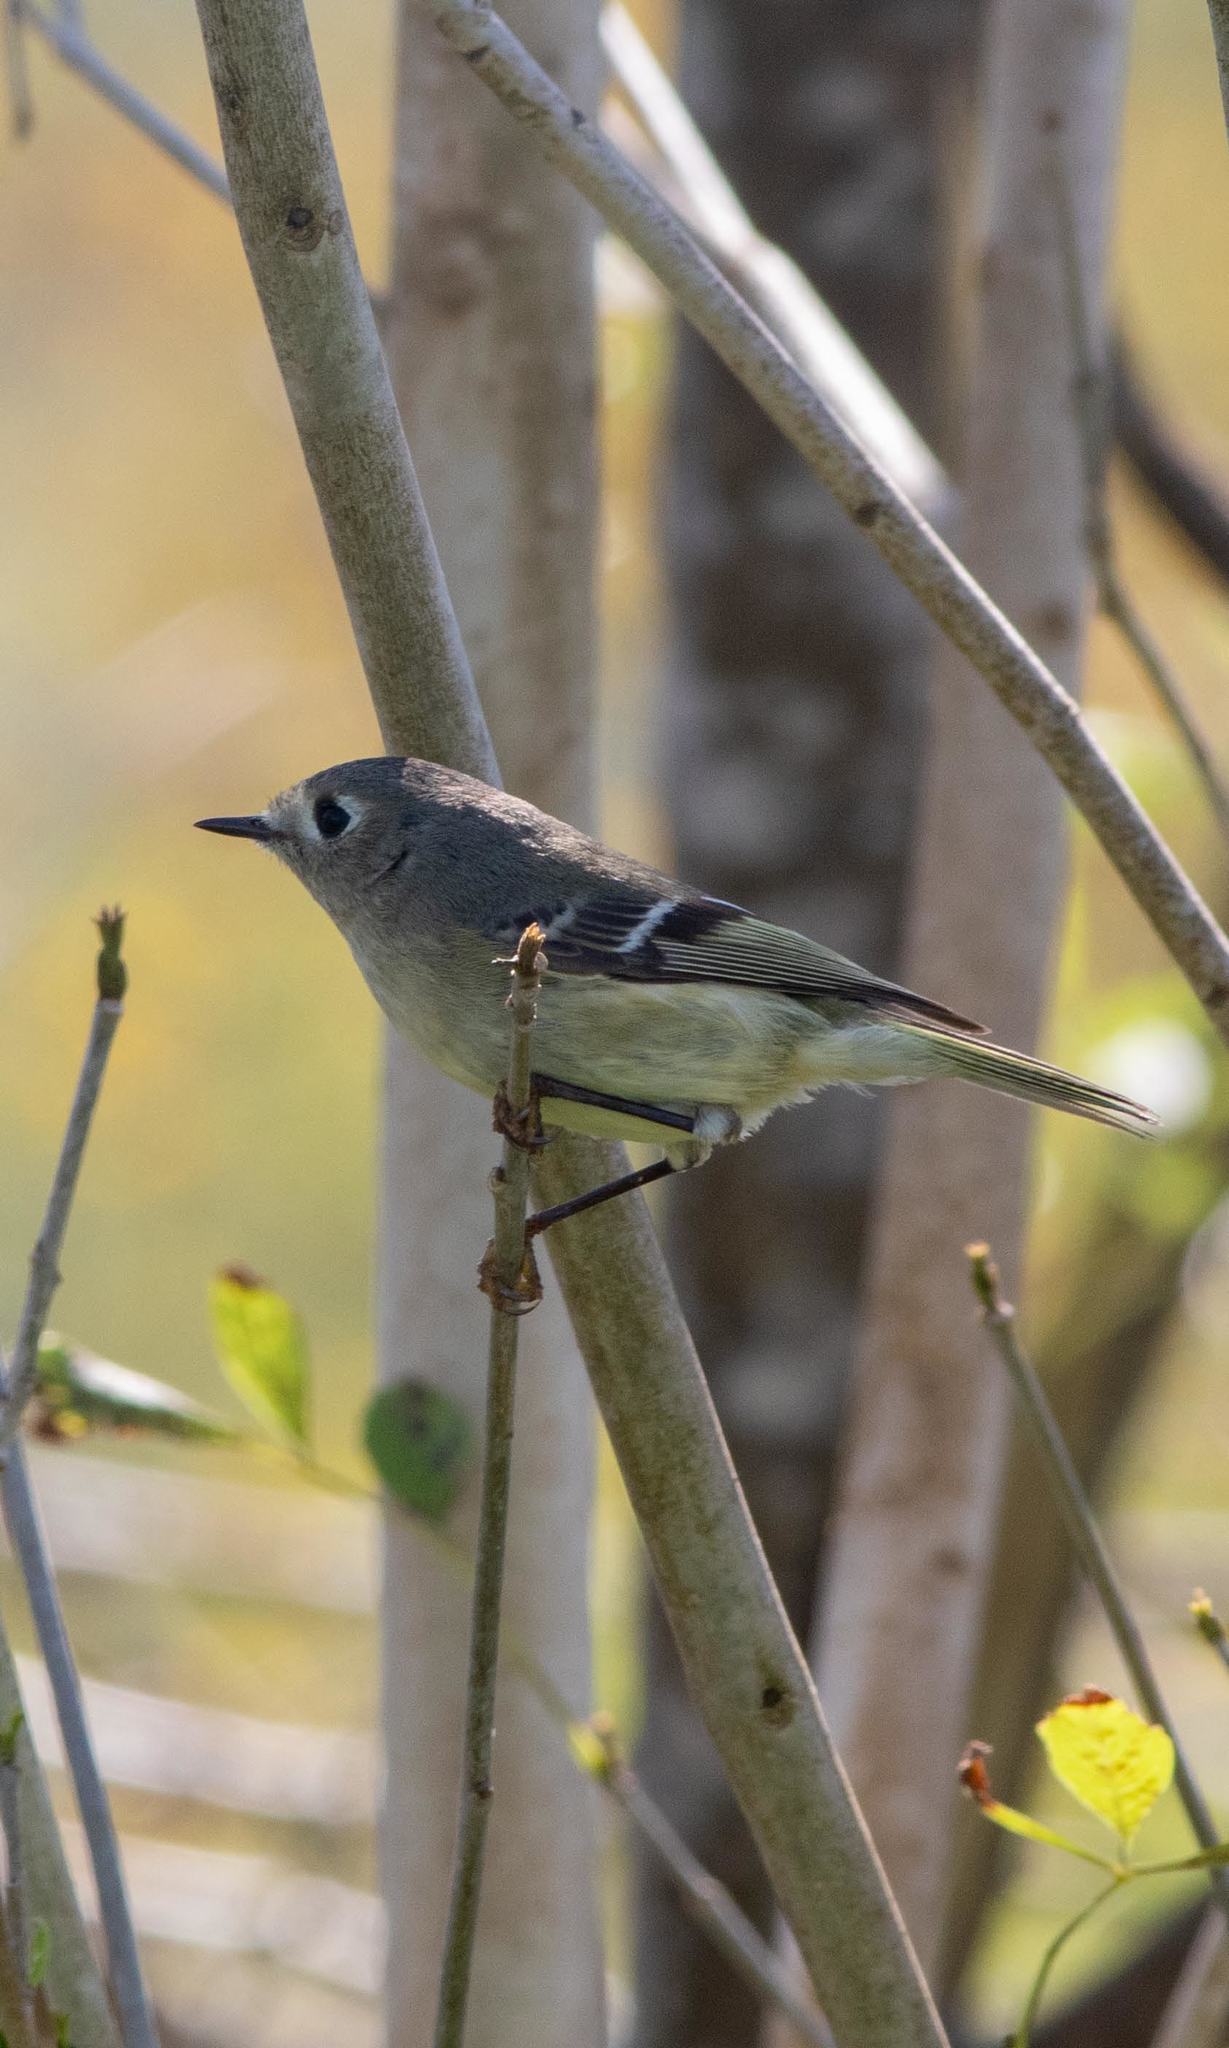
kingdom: Animalia
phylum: Chordata
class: Aves
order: Passeriformes
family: Regulidae
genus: Regulus
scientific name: Regulus calendula
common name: Ruby-crowned kinglet
